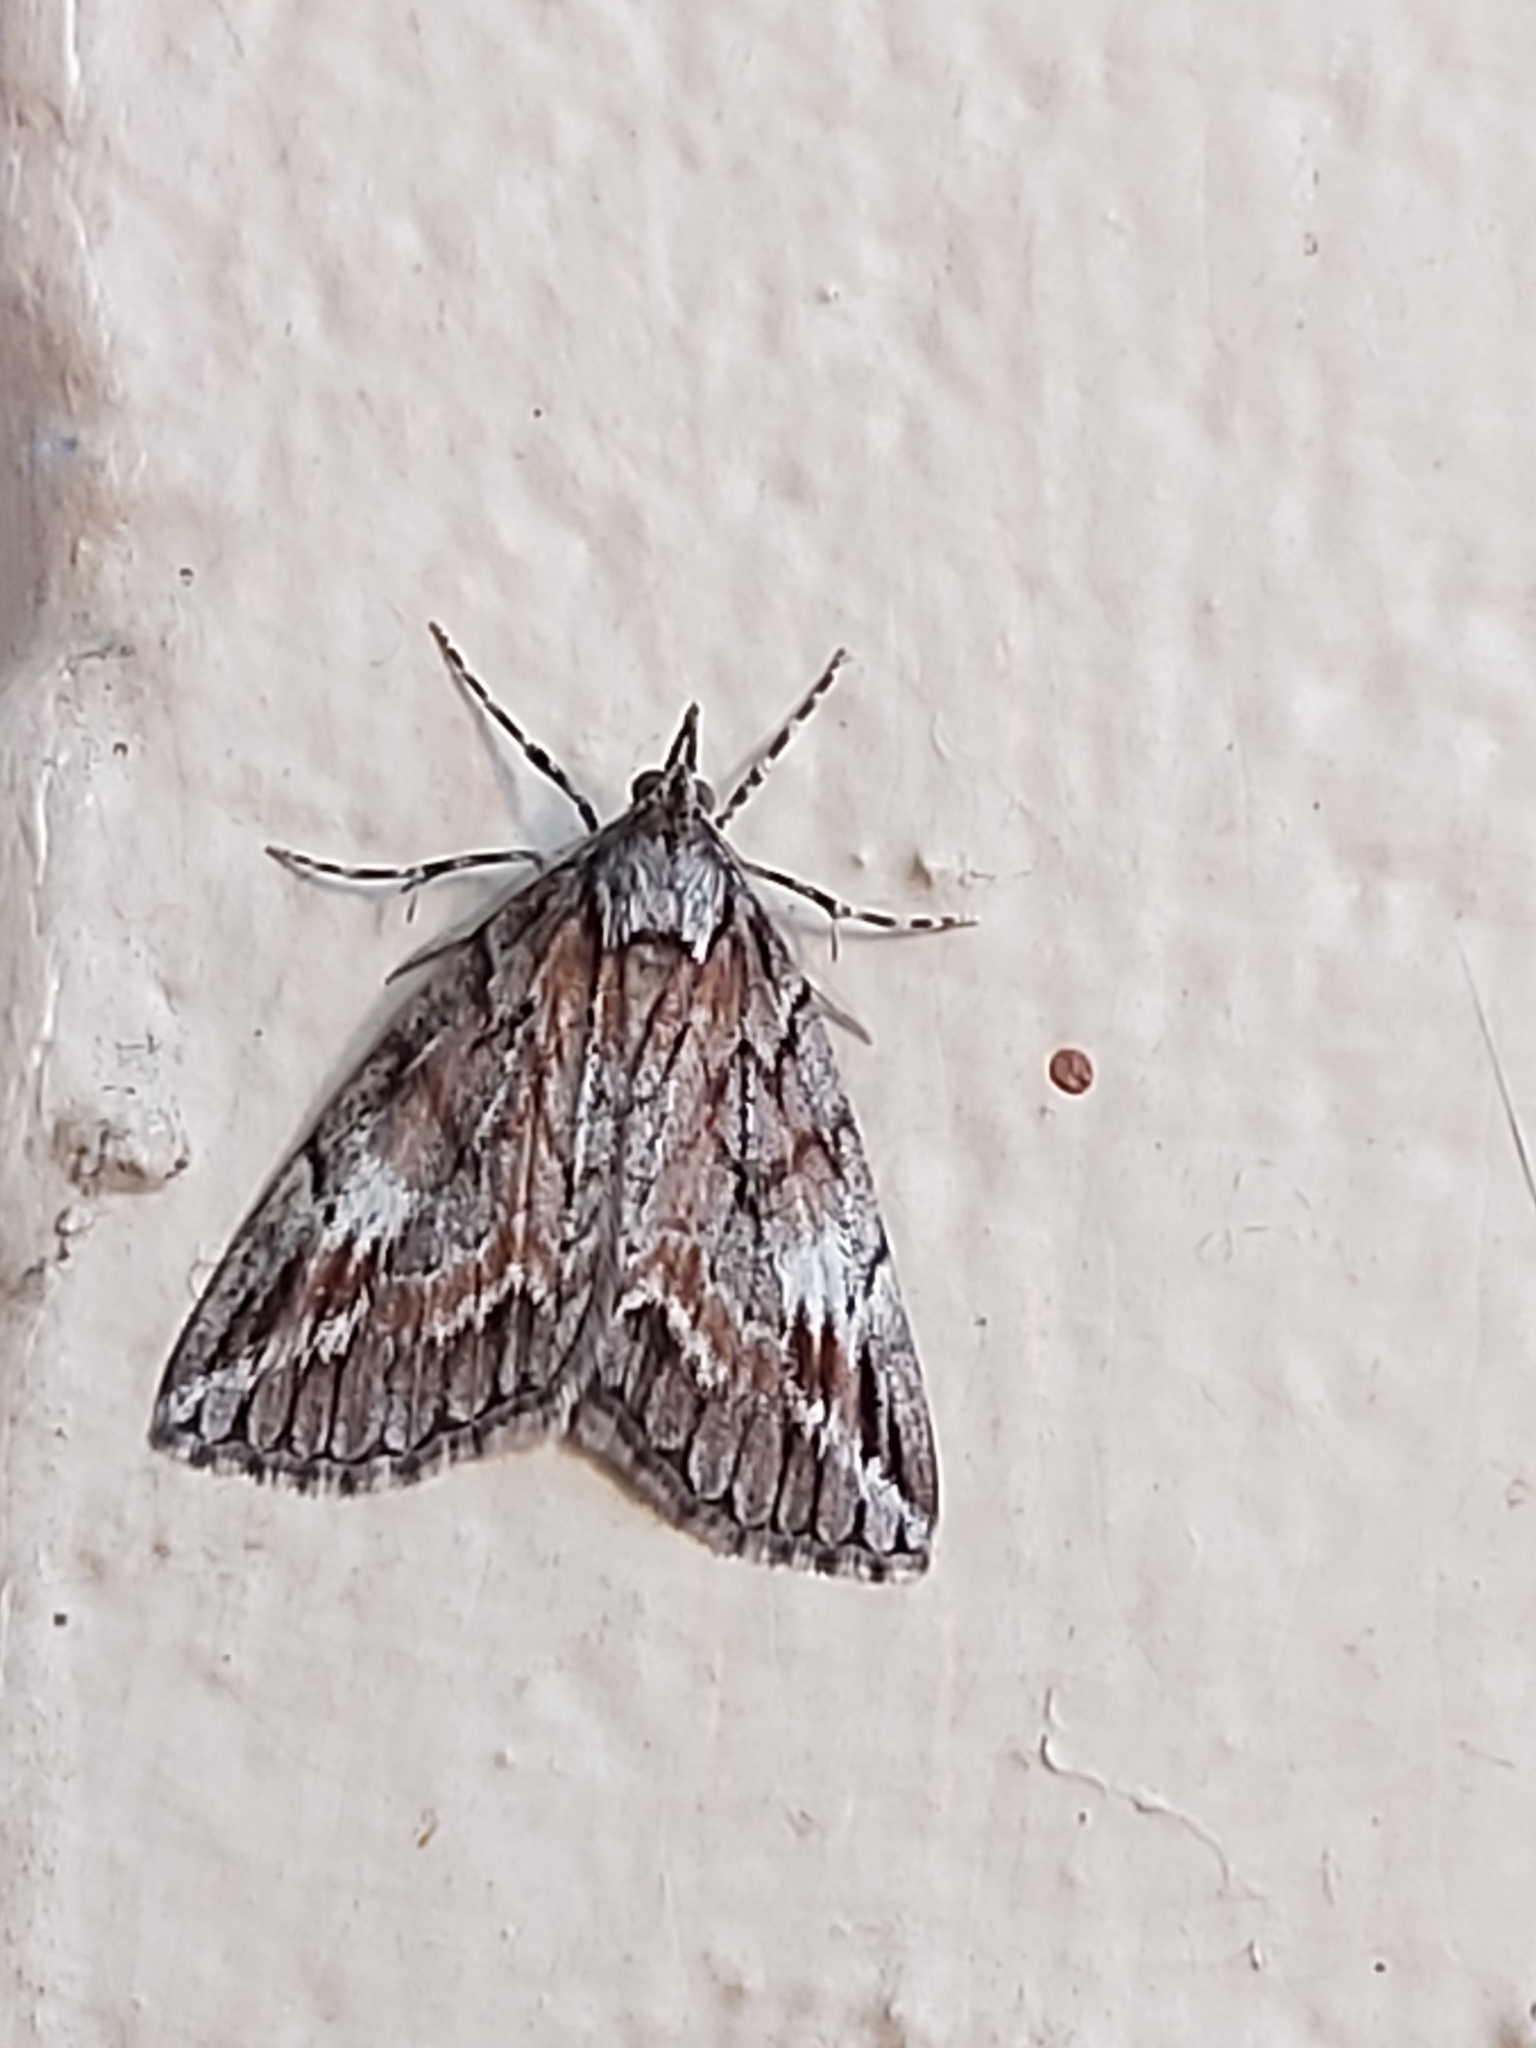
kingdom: Animalia
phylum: Arthropoda
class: Insecta
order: Lepidoptera
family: Geometridae
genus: Mictodoca
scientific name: Mictodoca toxeuta
